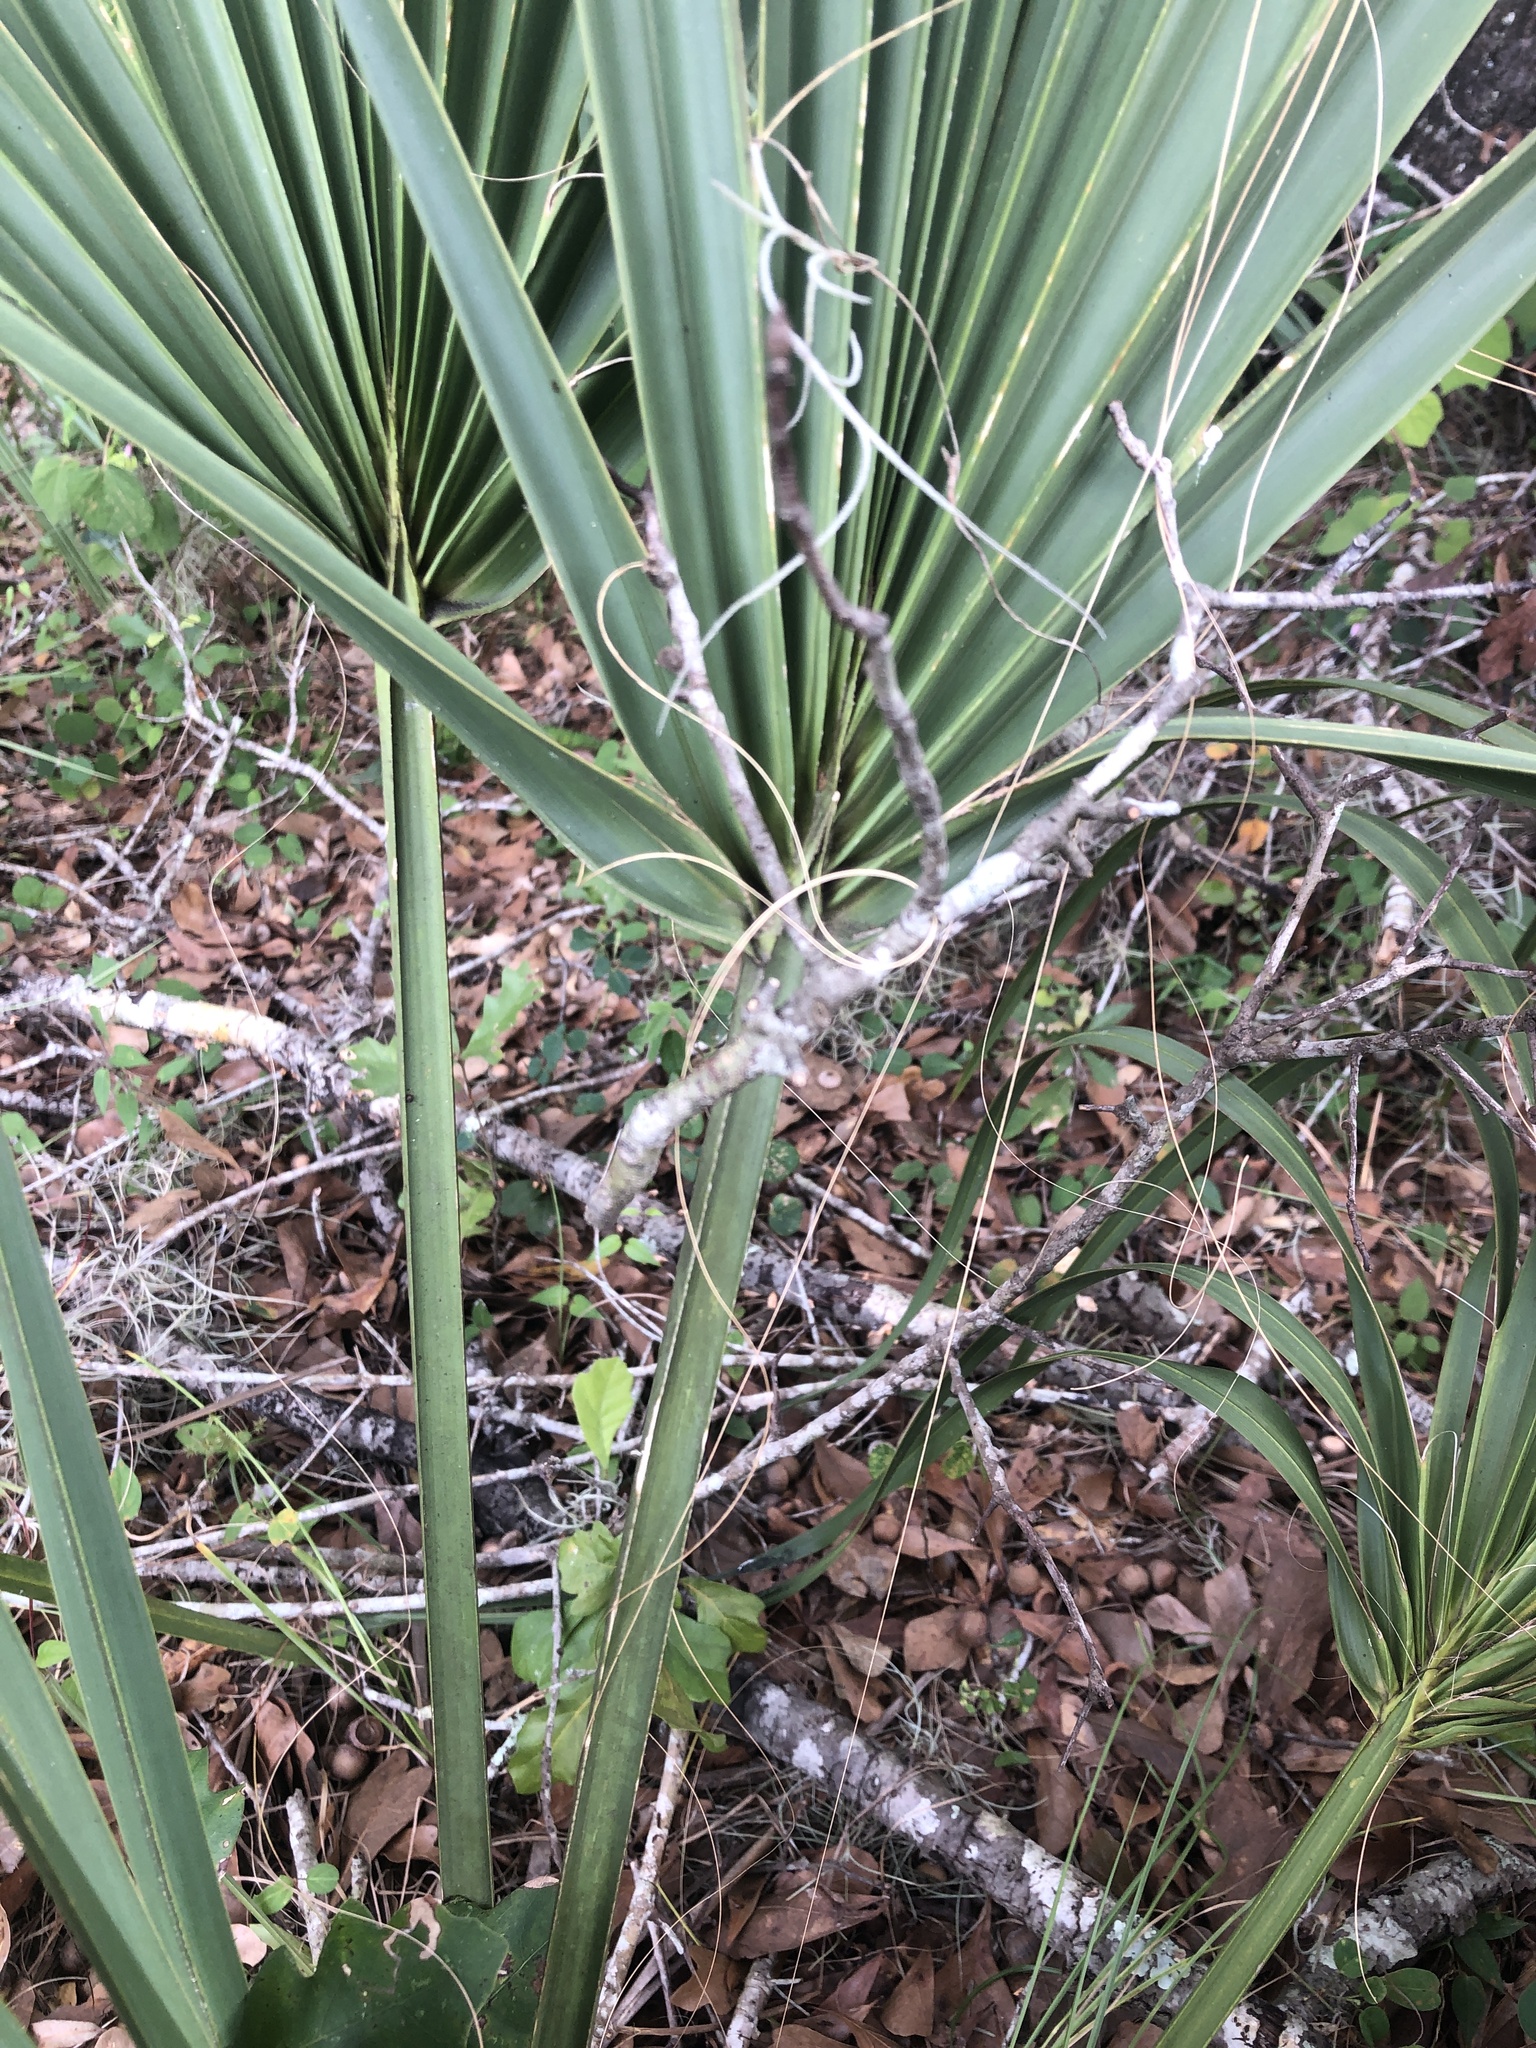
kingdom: Plantae
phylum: Tracheophyta
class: Liliopsida
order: Arecales
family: Arecaceae
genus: Sabal
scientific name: Sabal palmetto
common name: Blue palmetto
